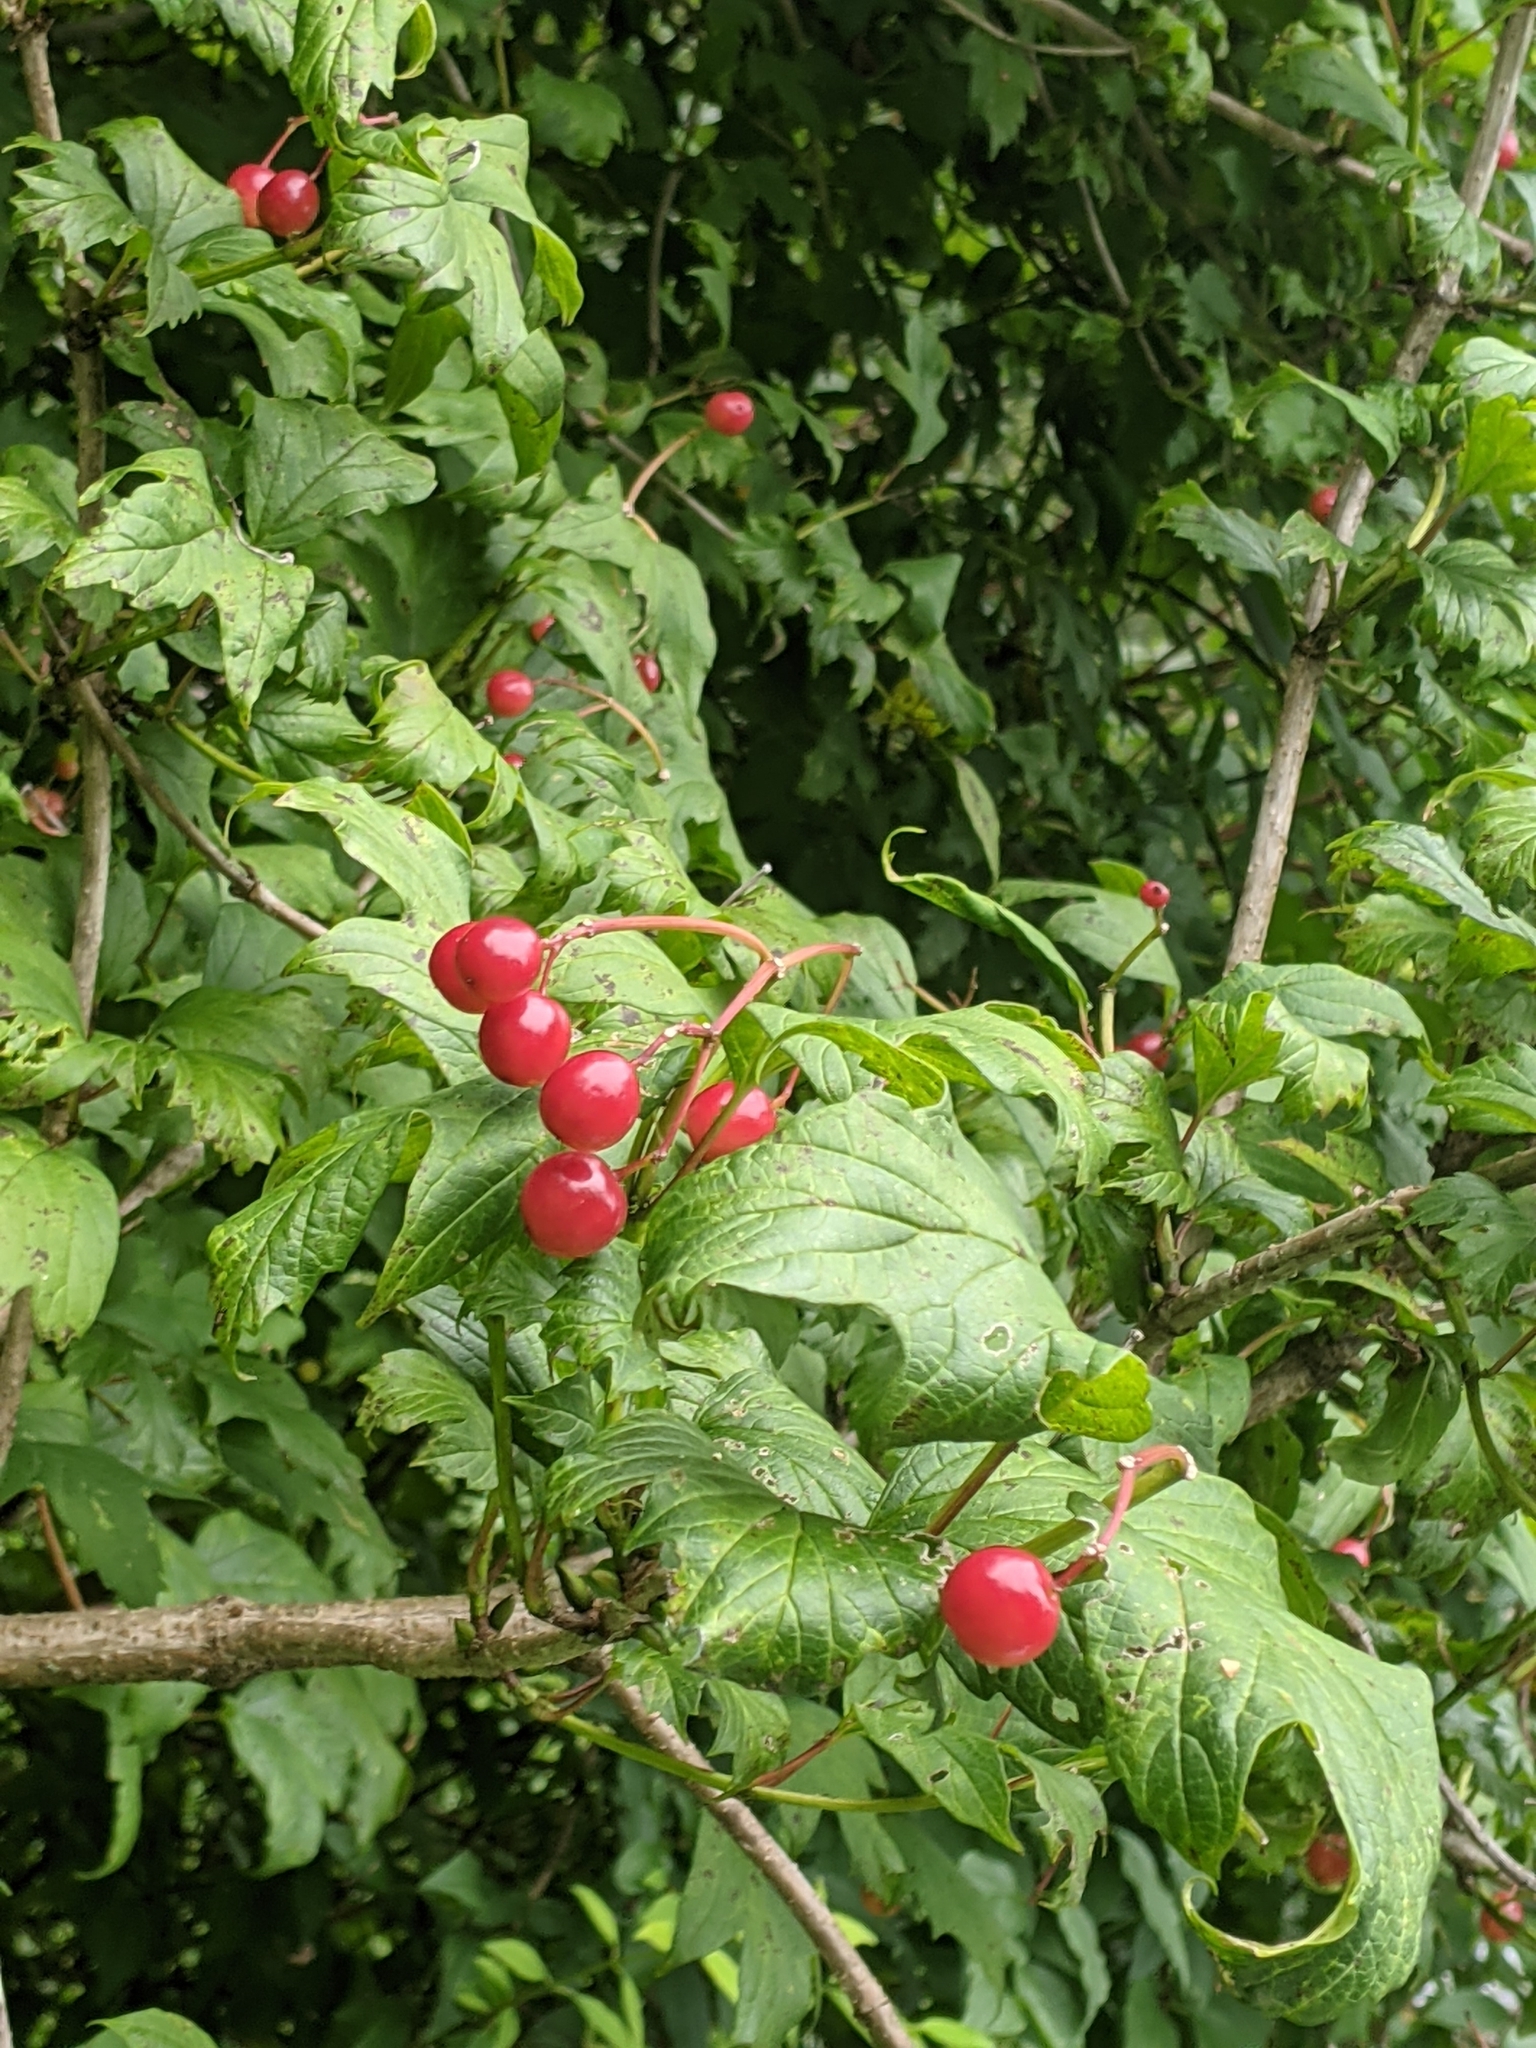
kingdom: Plantae
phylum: Tracheophyta
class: Magnoliopsida
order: Dipsacales
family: Viburnaceae
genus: Viburnum
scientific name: Viburnum opulus
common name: Guelder-rose
